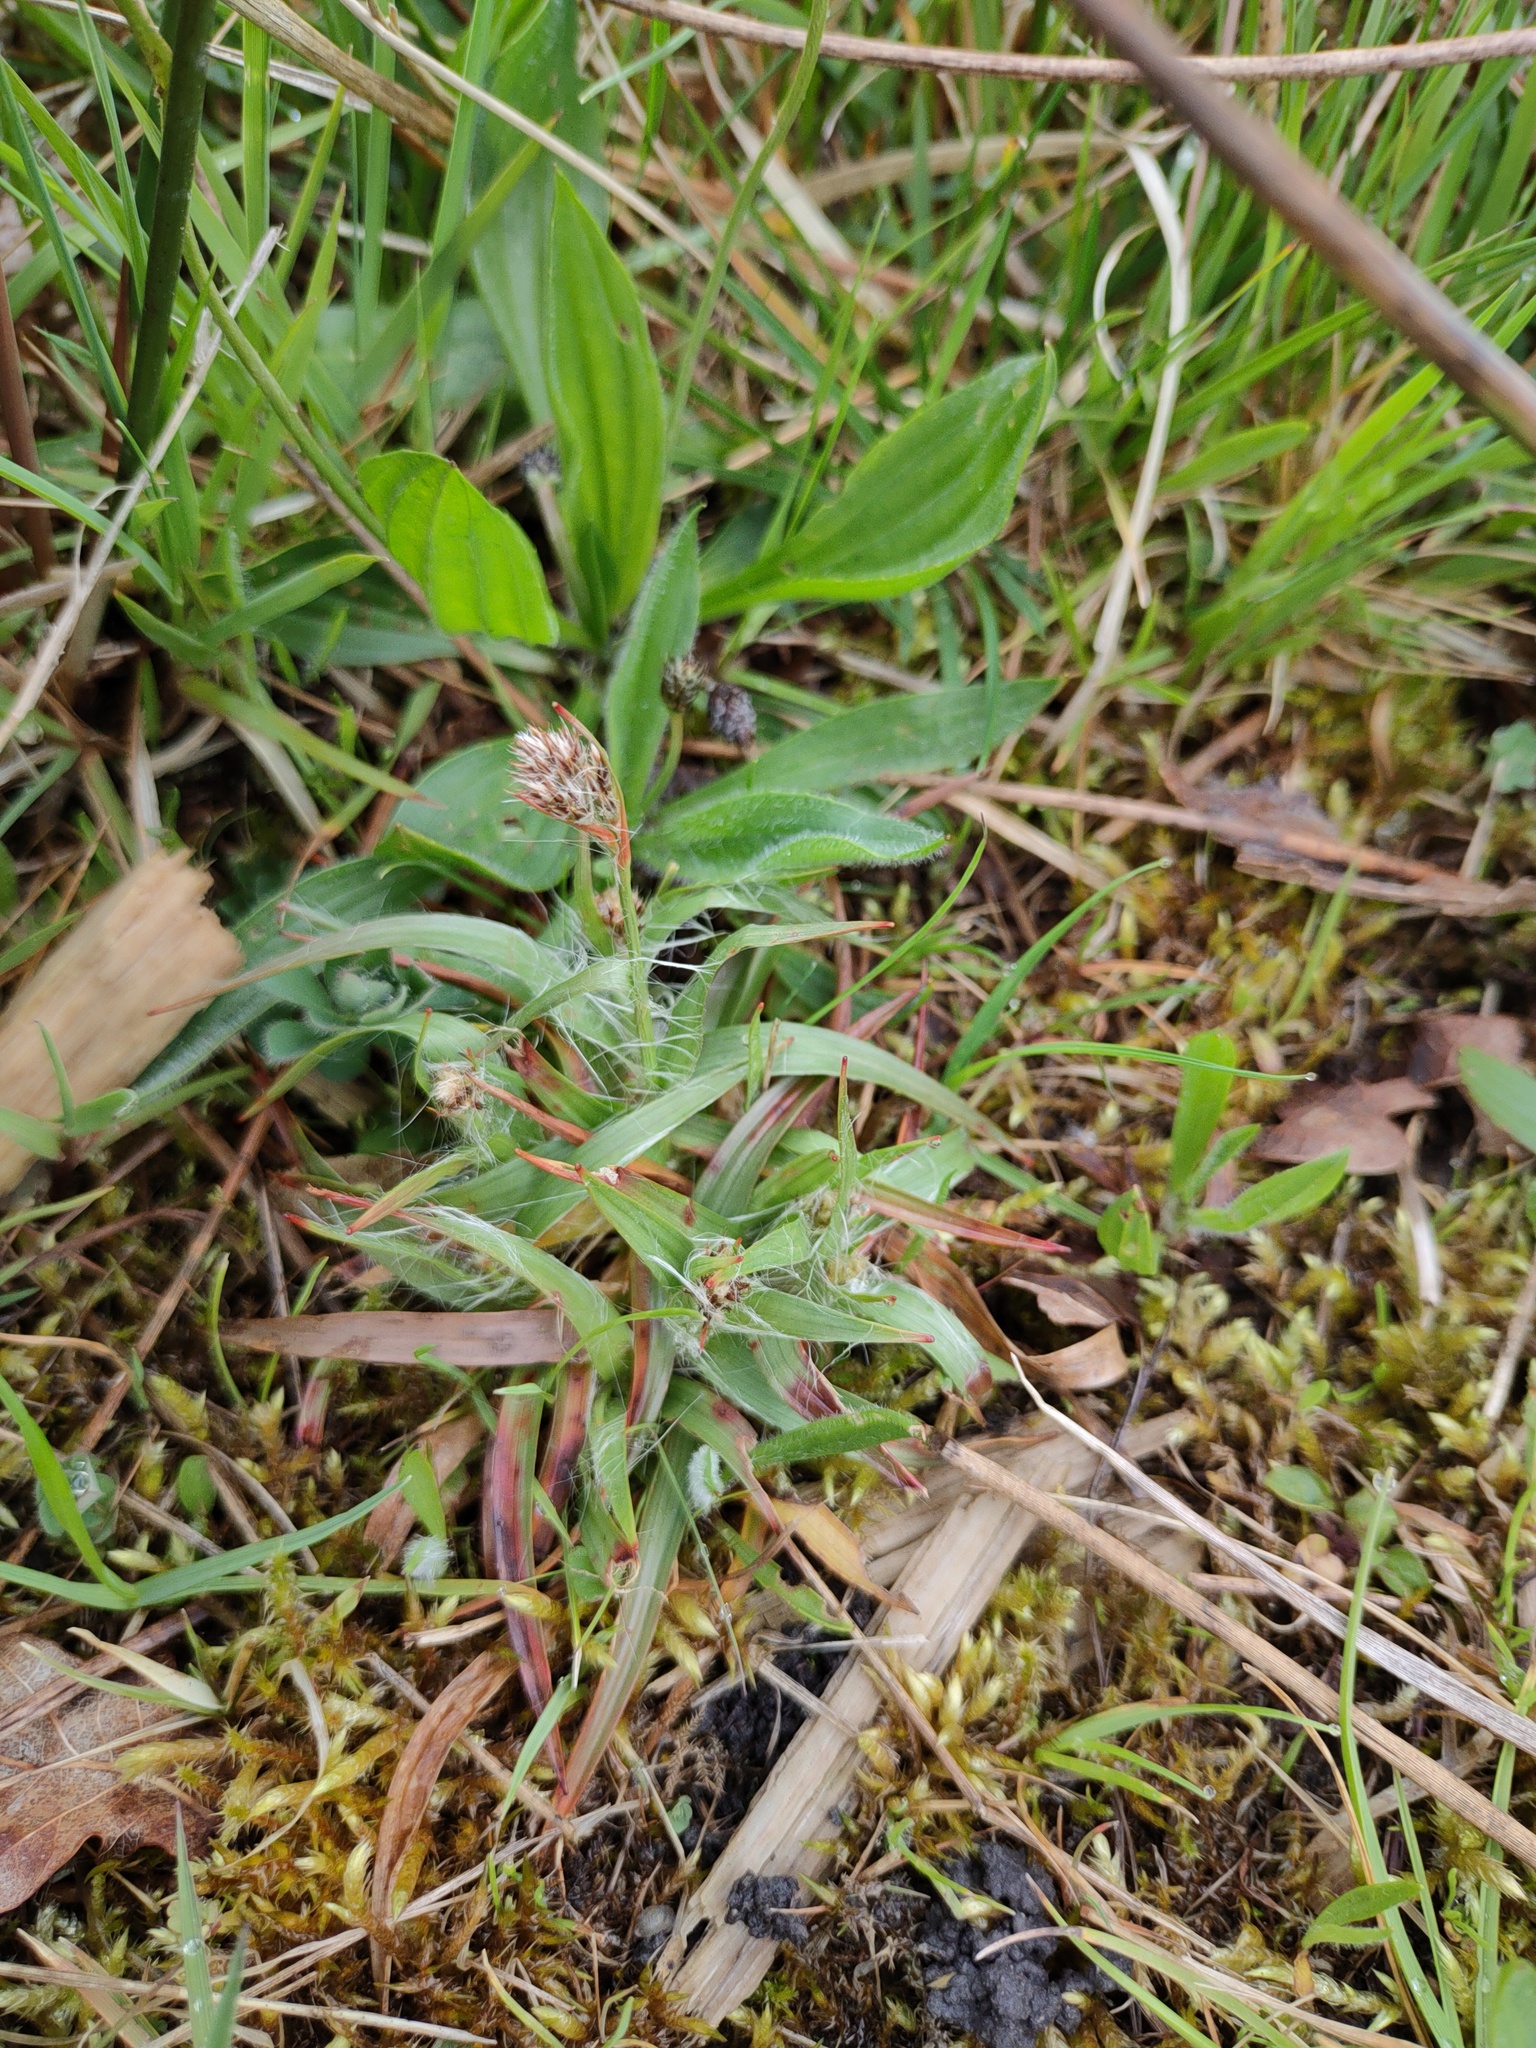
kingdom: Plantae
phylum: Tracheophyta
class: Liliopsida
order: Poales
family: Juncaceae
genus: Luzula
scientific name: Luzula campestris
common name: Field wood-rush
